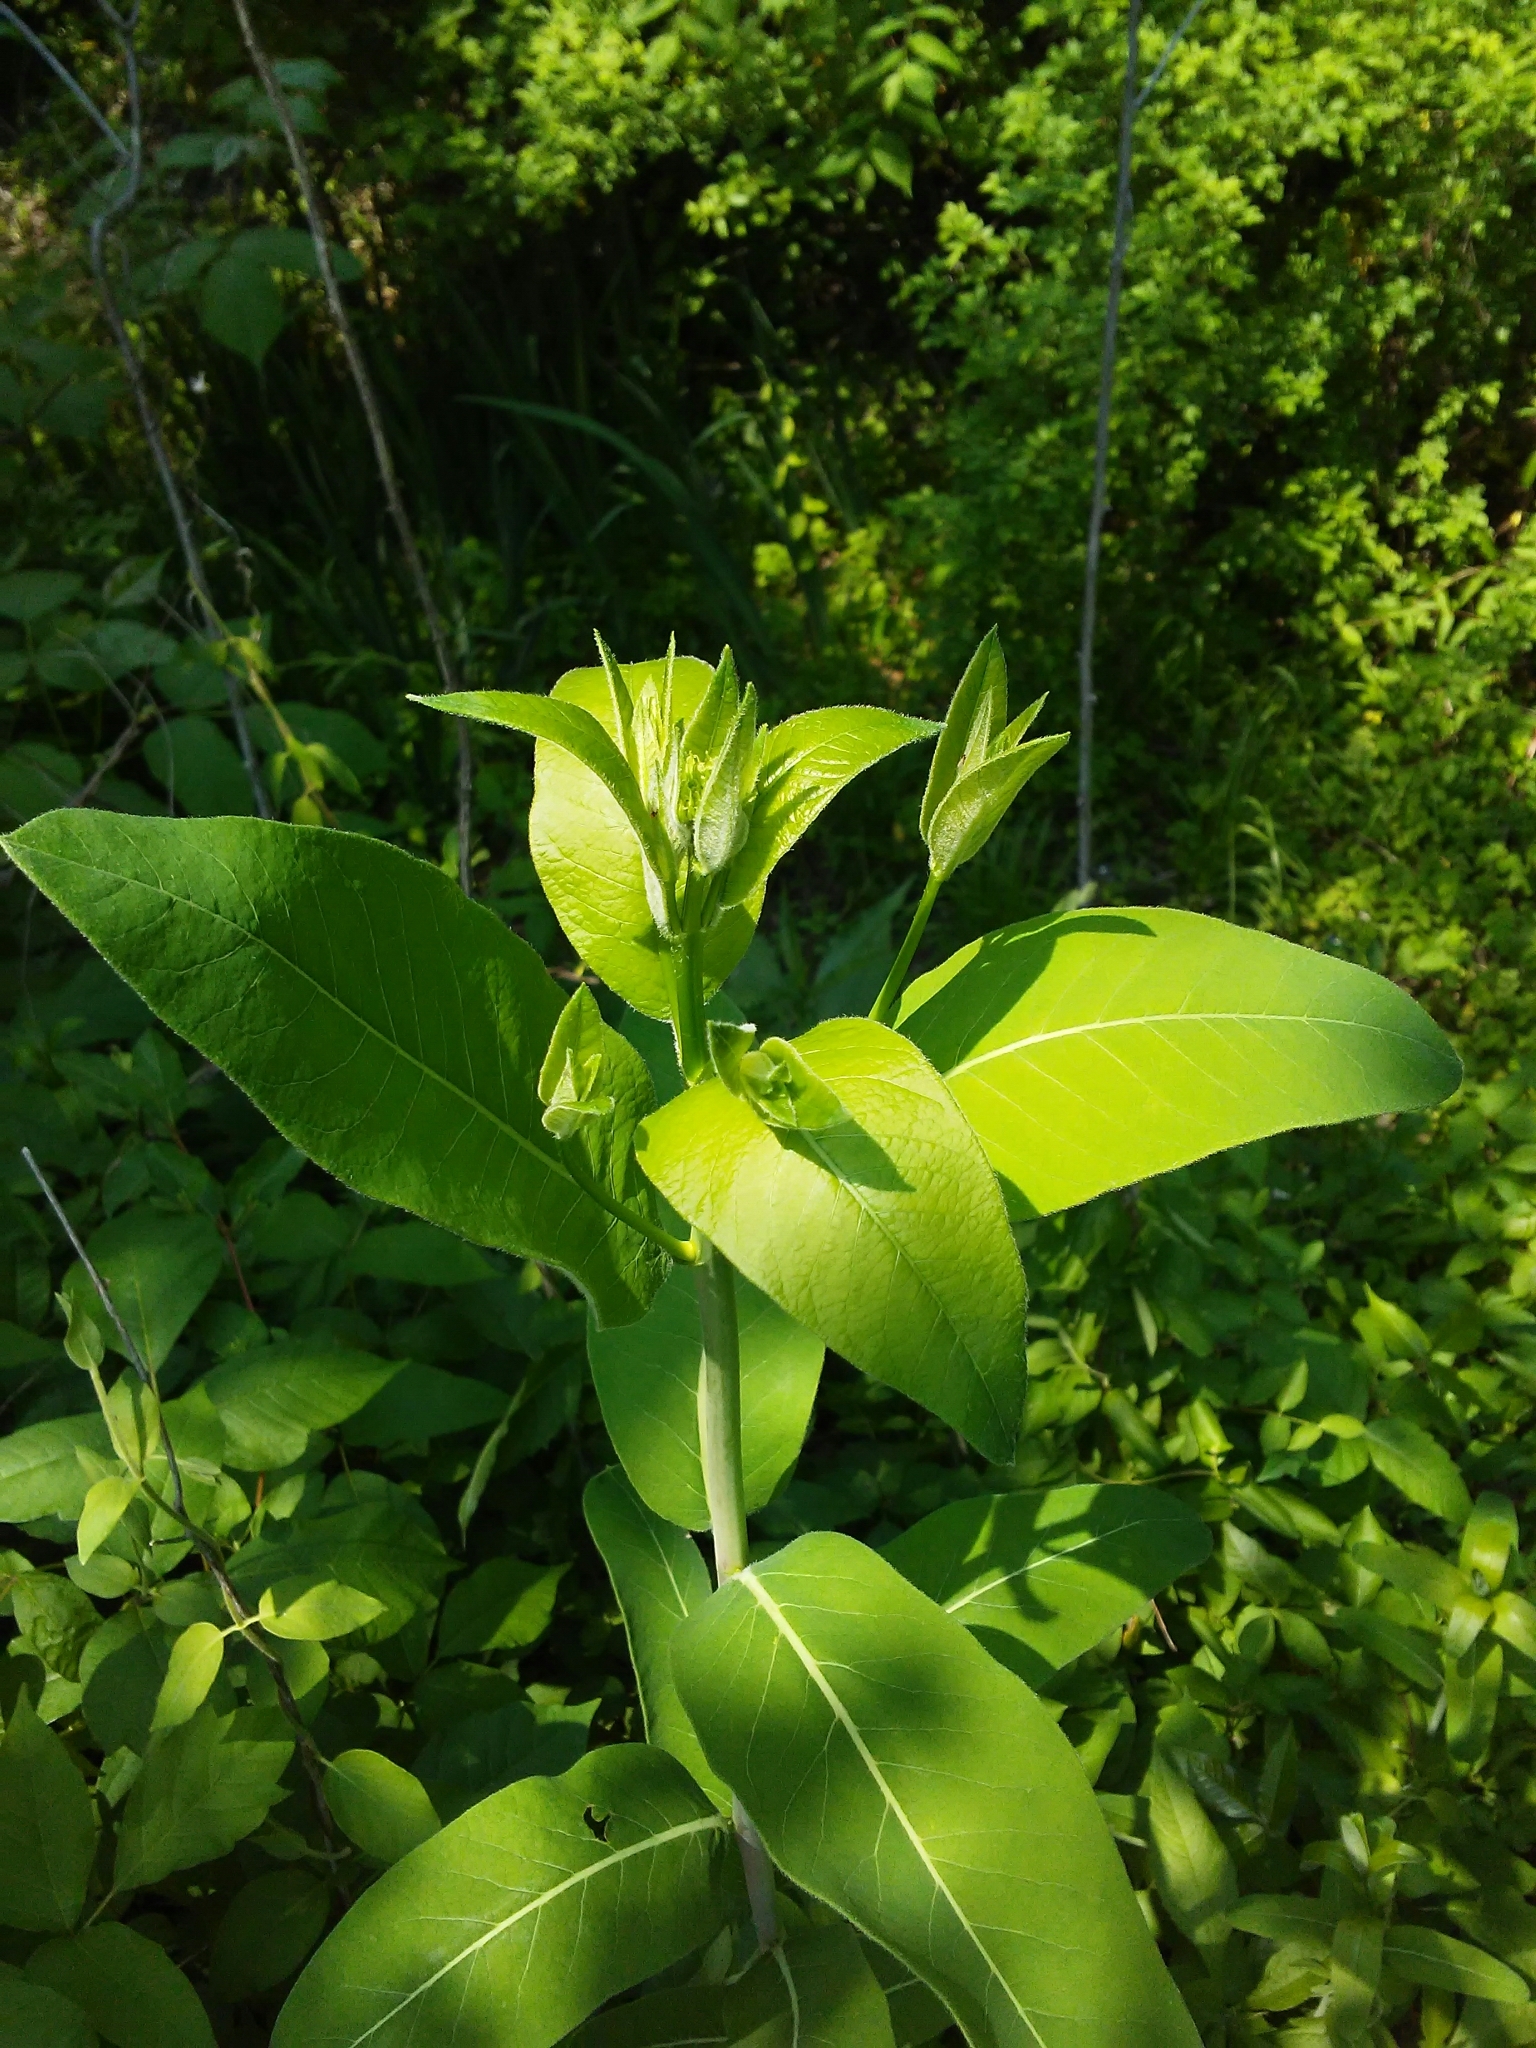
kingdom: Plantae
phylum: Tracheophyta
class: Magnoliopsida
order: Gentianales
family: Apocynaceae
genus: Apocynum
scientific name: Apocynum cannabinum
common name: Hemp dogbane
